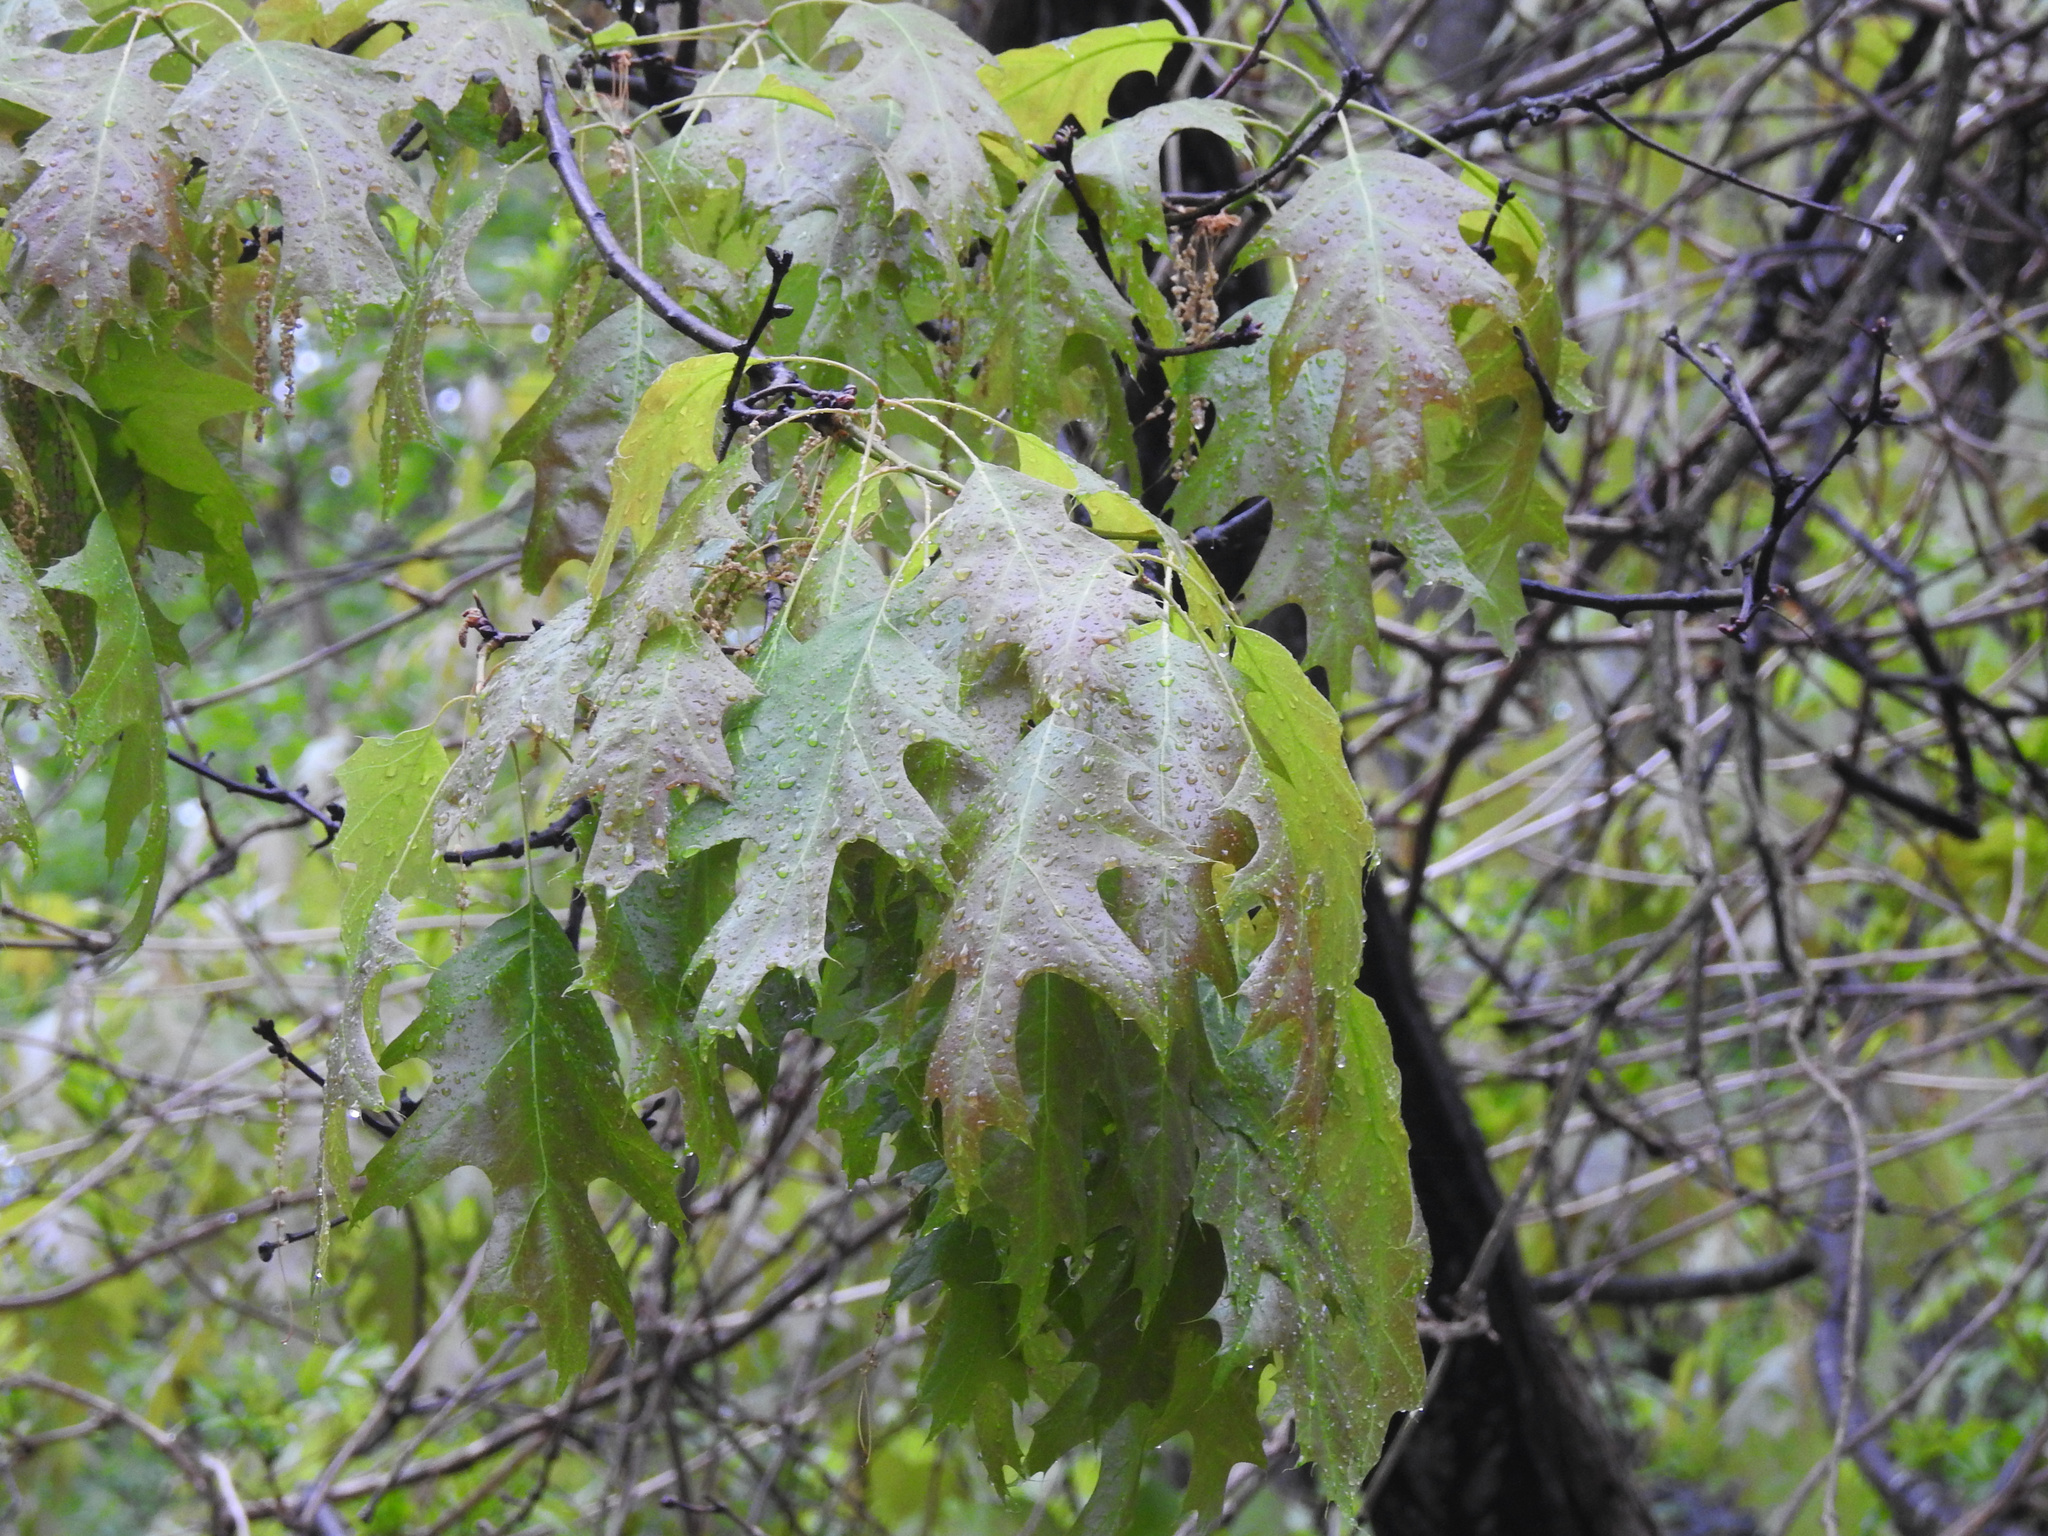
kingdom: Plantae
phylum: Tracheophyta
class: Magnoliopsida
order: Fagales
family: Fagaceae
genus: Quercus
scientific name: Quercus rubra
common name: Red oak
